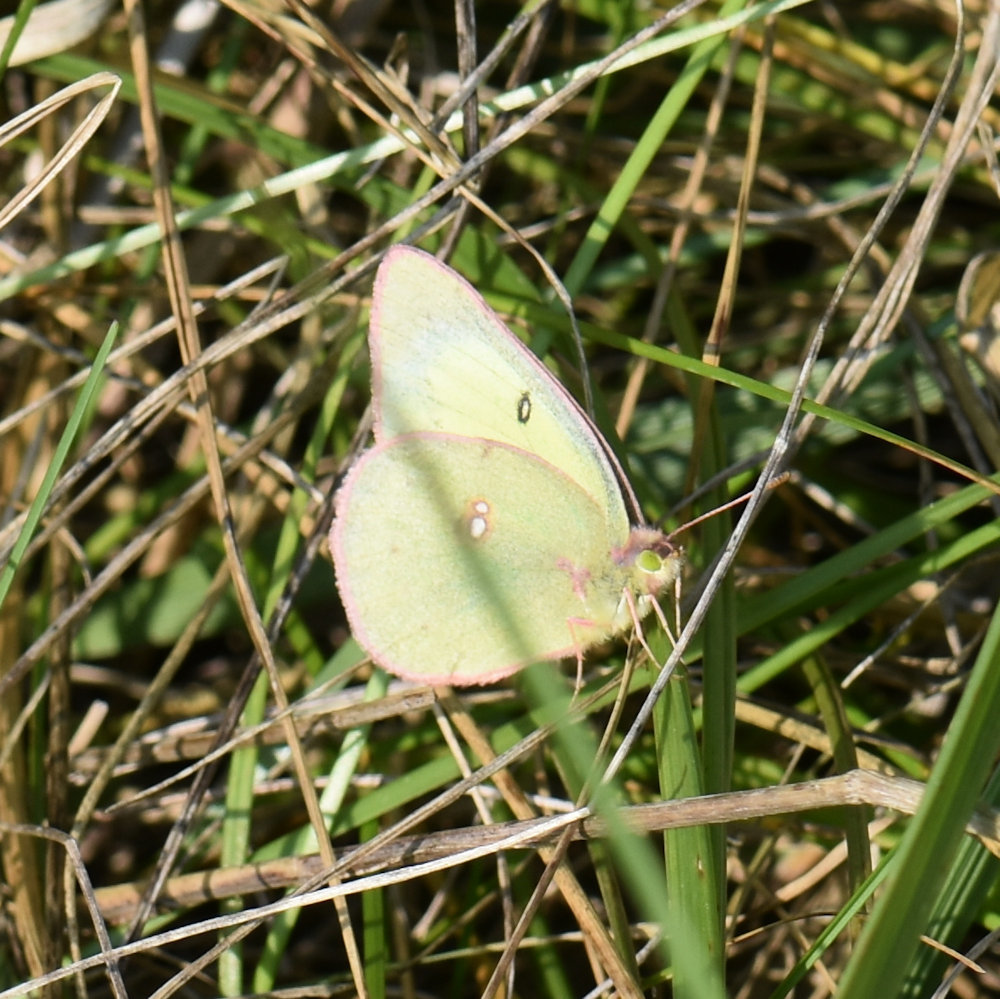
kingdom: Animalia
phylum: Arthropoda
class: Insecta
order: Lepidoptera
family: Pieridae
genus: Colias
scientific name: Colias philodice
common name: Clouded sulphur
